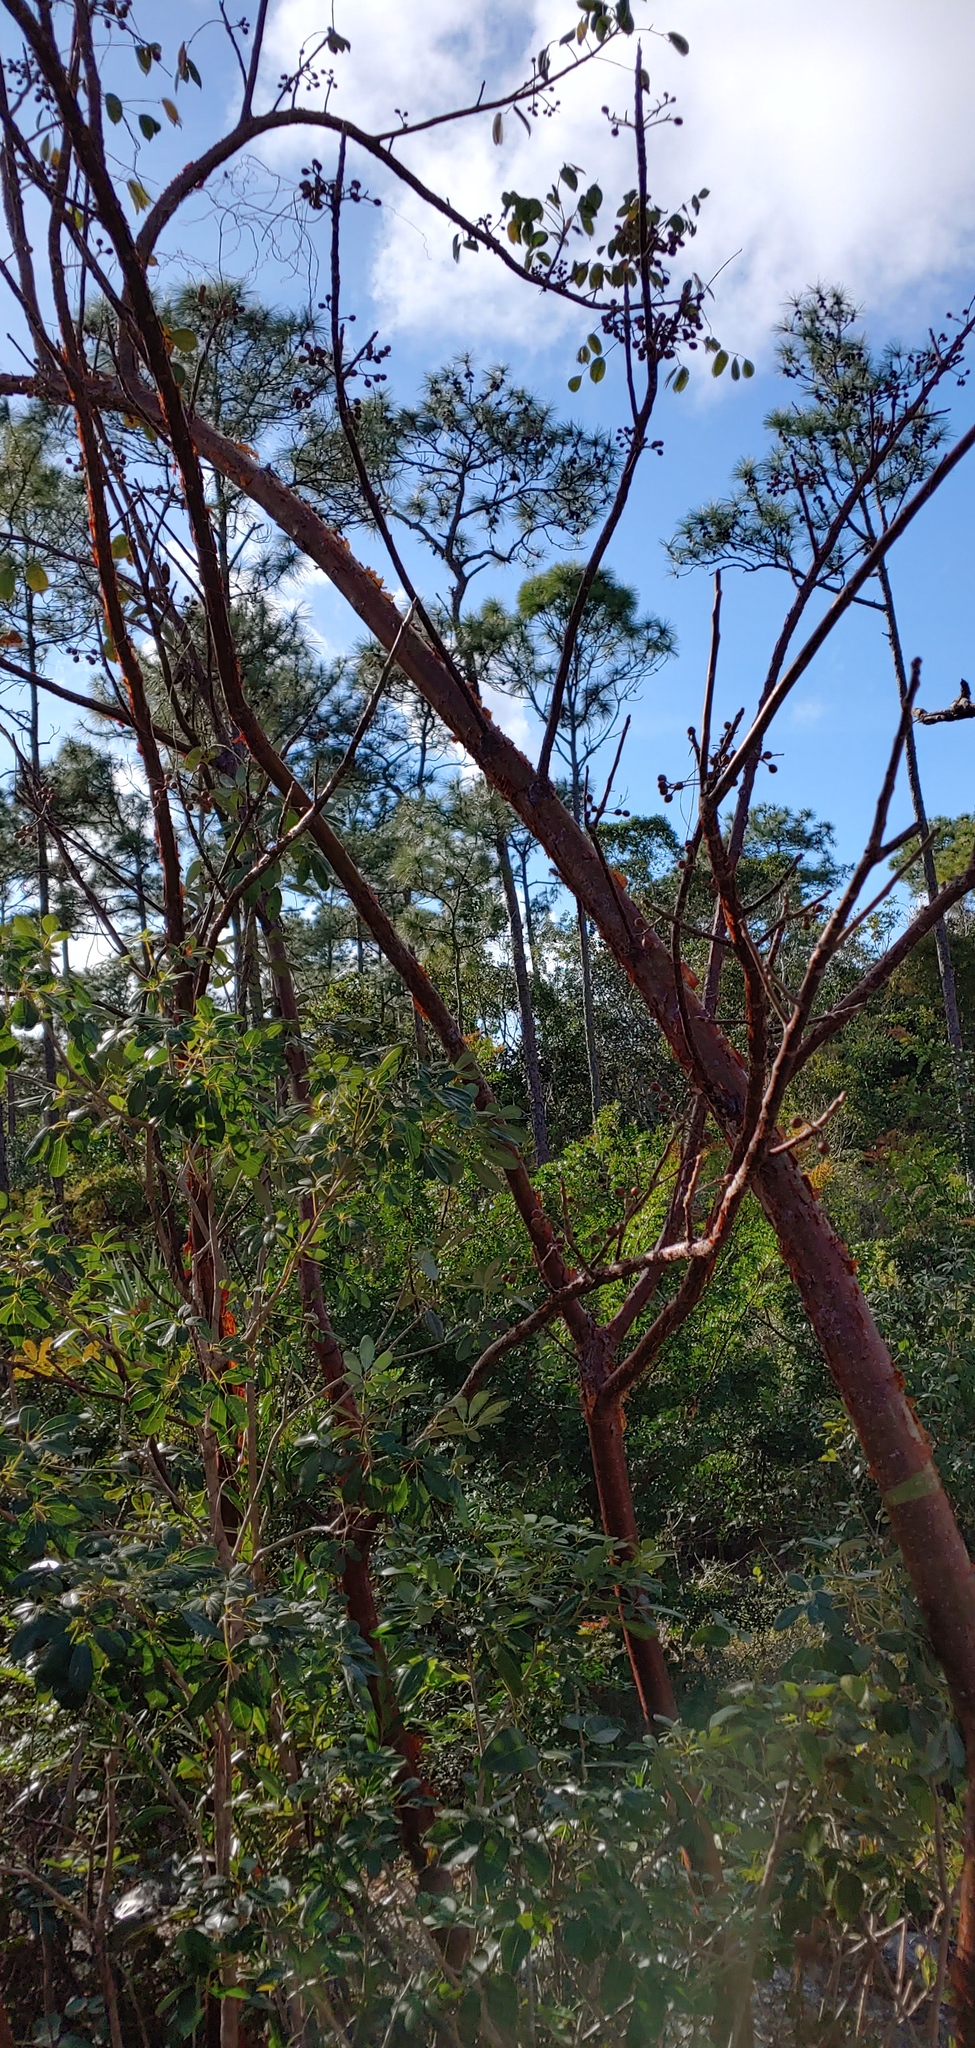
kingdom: Plantae
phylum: Tracheophyta
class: Magnoliopsida
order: Sapindales
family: Burseraceae
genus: Bursera
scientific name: Bursera simaruba
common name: Turpentine tree
